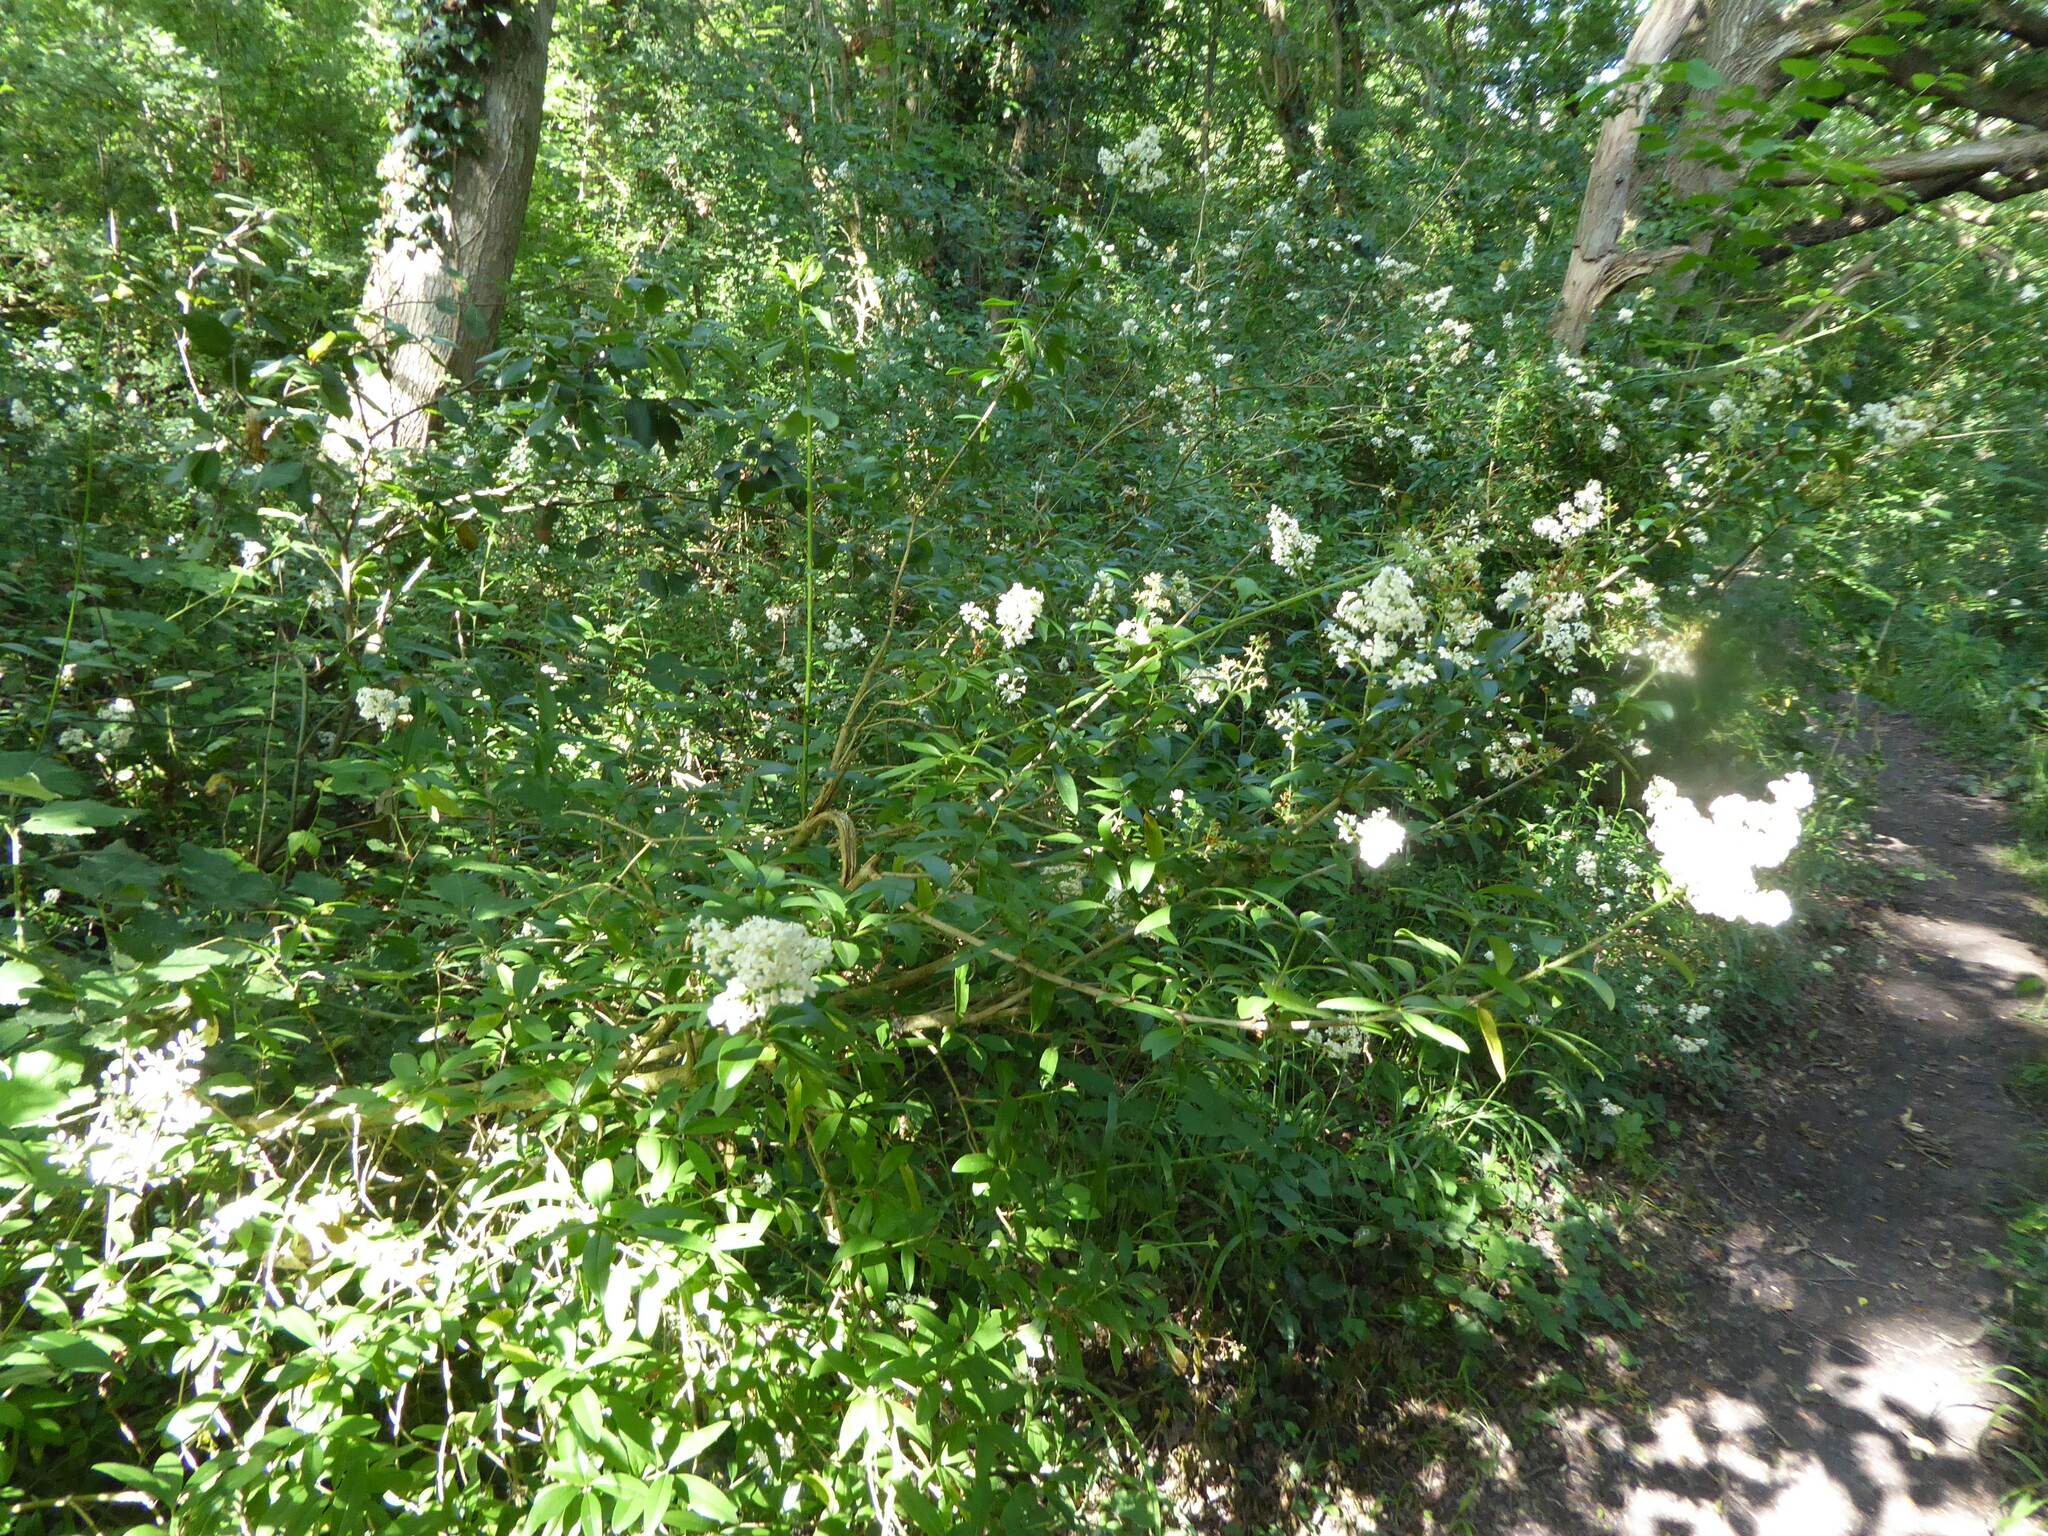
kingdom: Plantae
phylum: Tracheophyta
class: Magnoliopsida
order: Lamiales
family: Oleaceae
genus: Ligustrum
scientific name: Ligustrum vulgare
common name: Wild privet
